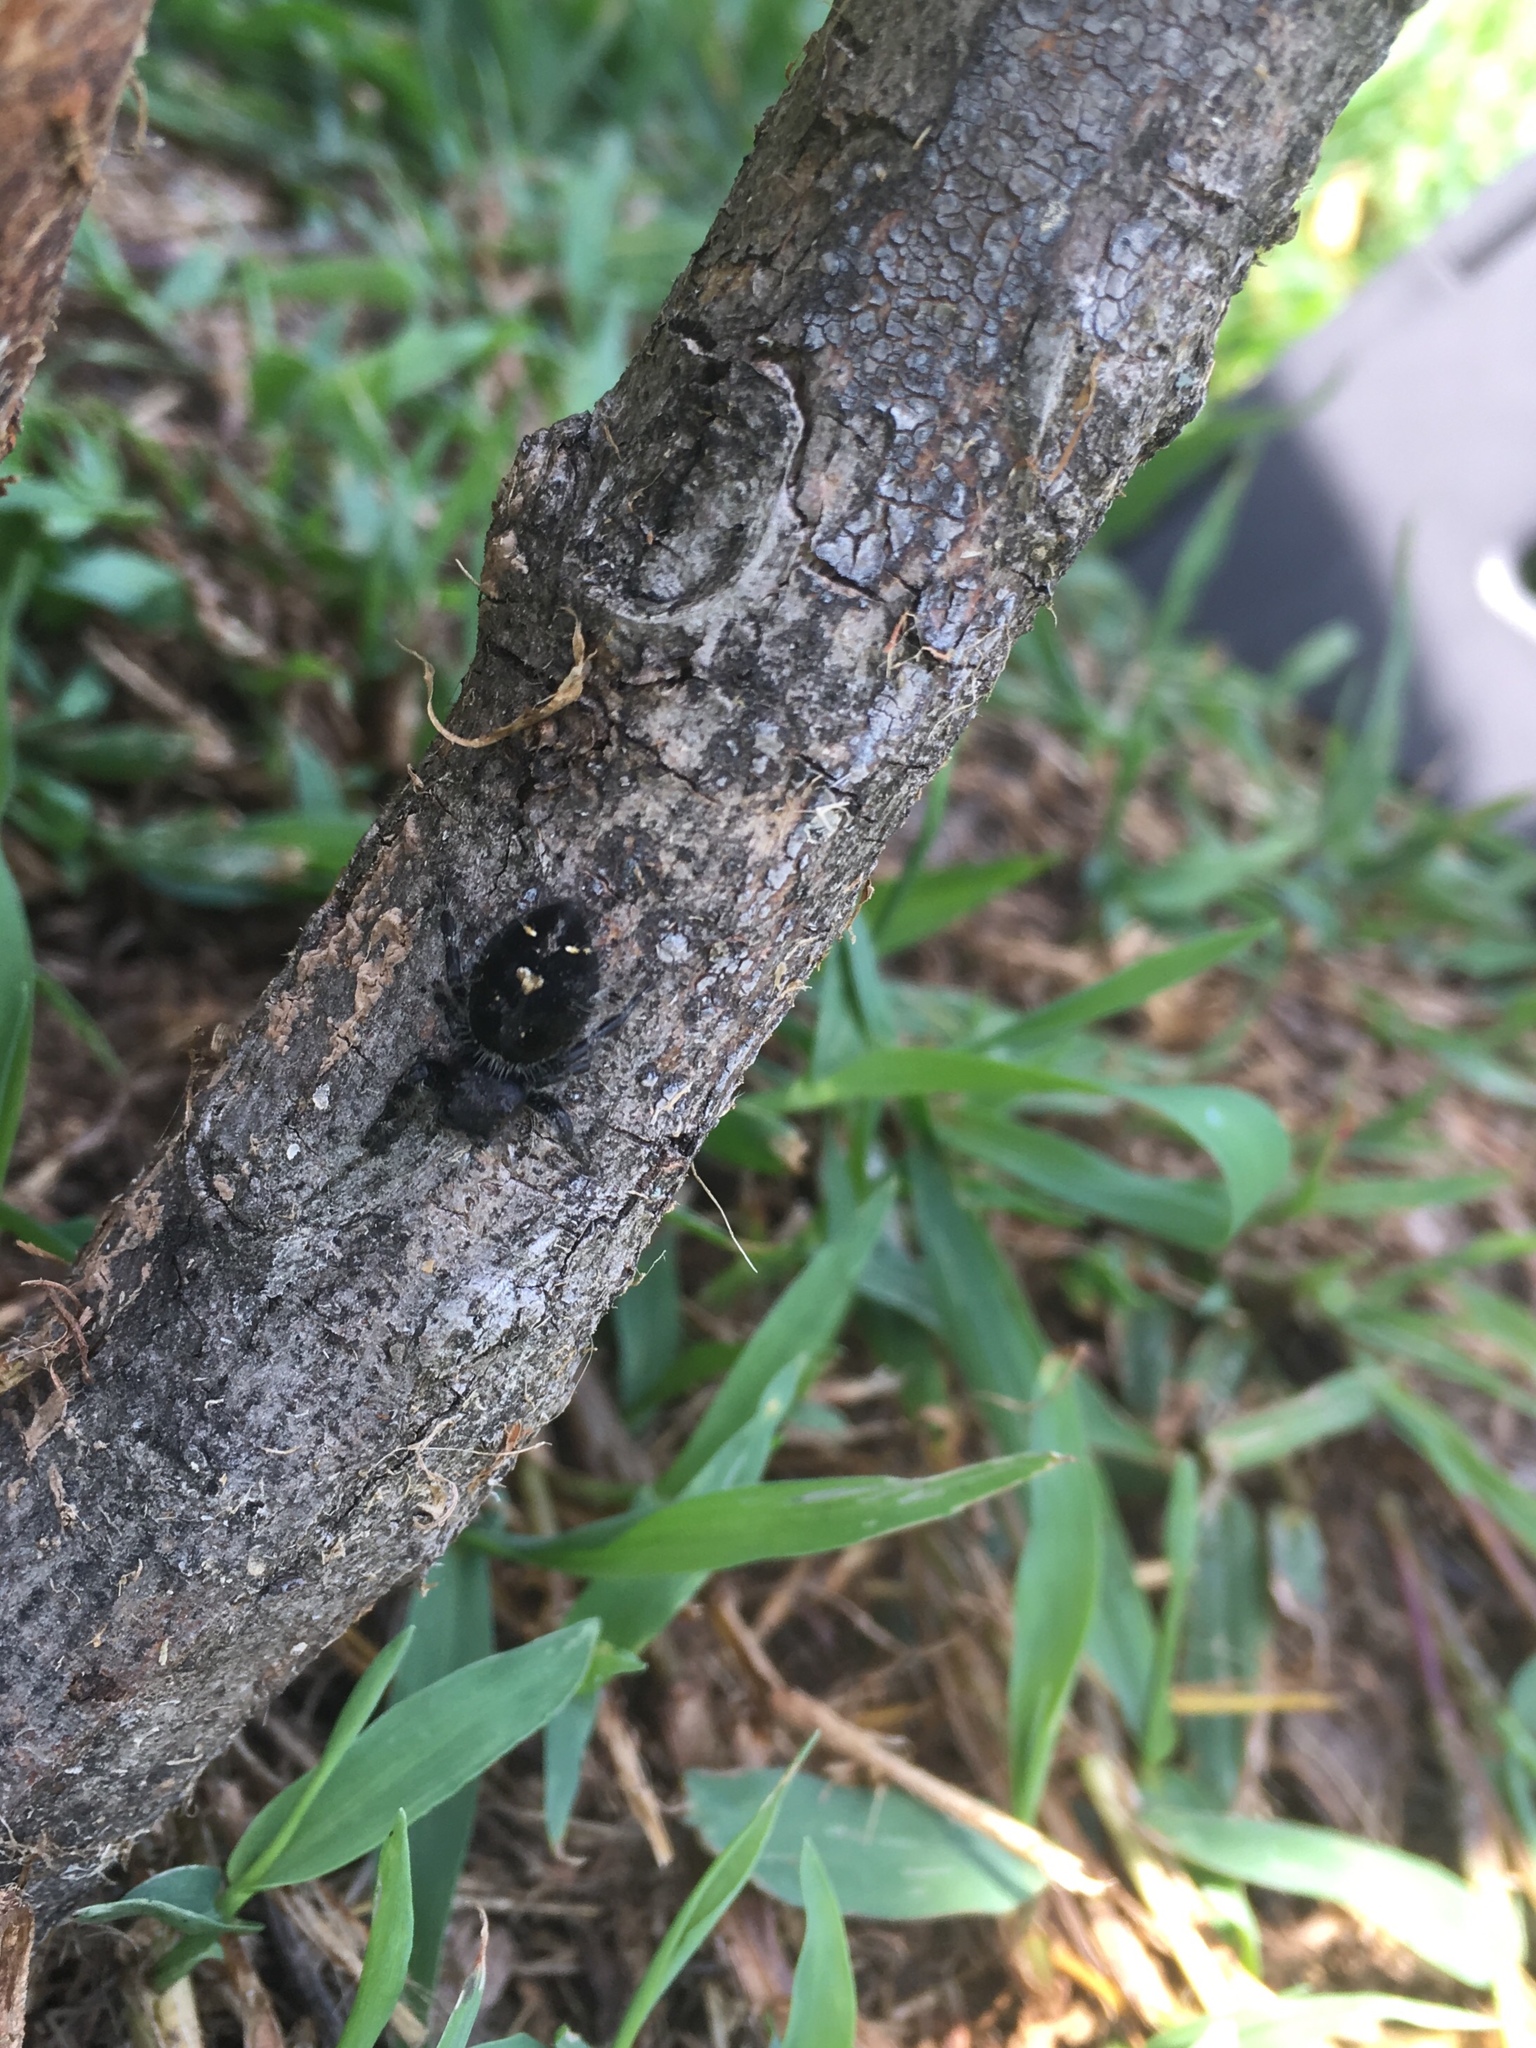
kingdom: Animalia
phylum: Arthropoda
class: Arachnida
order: Araneae
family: Salticidae
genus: Phidippus
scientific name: Phidippus audax
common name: Bold jumper
